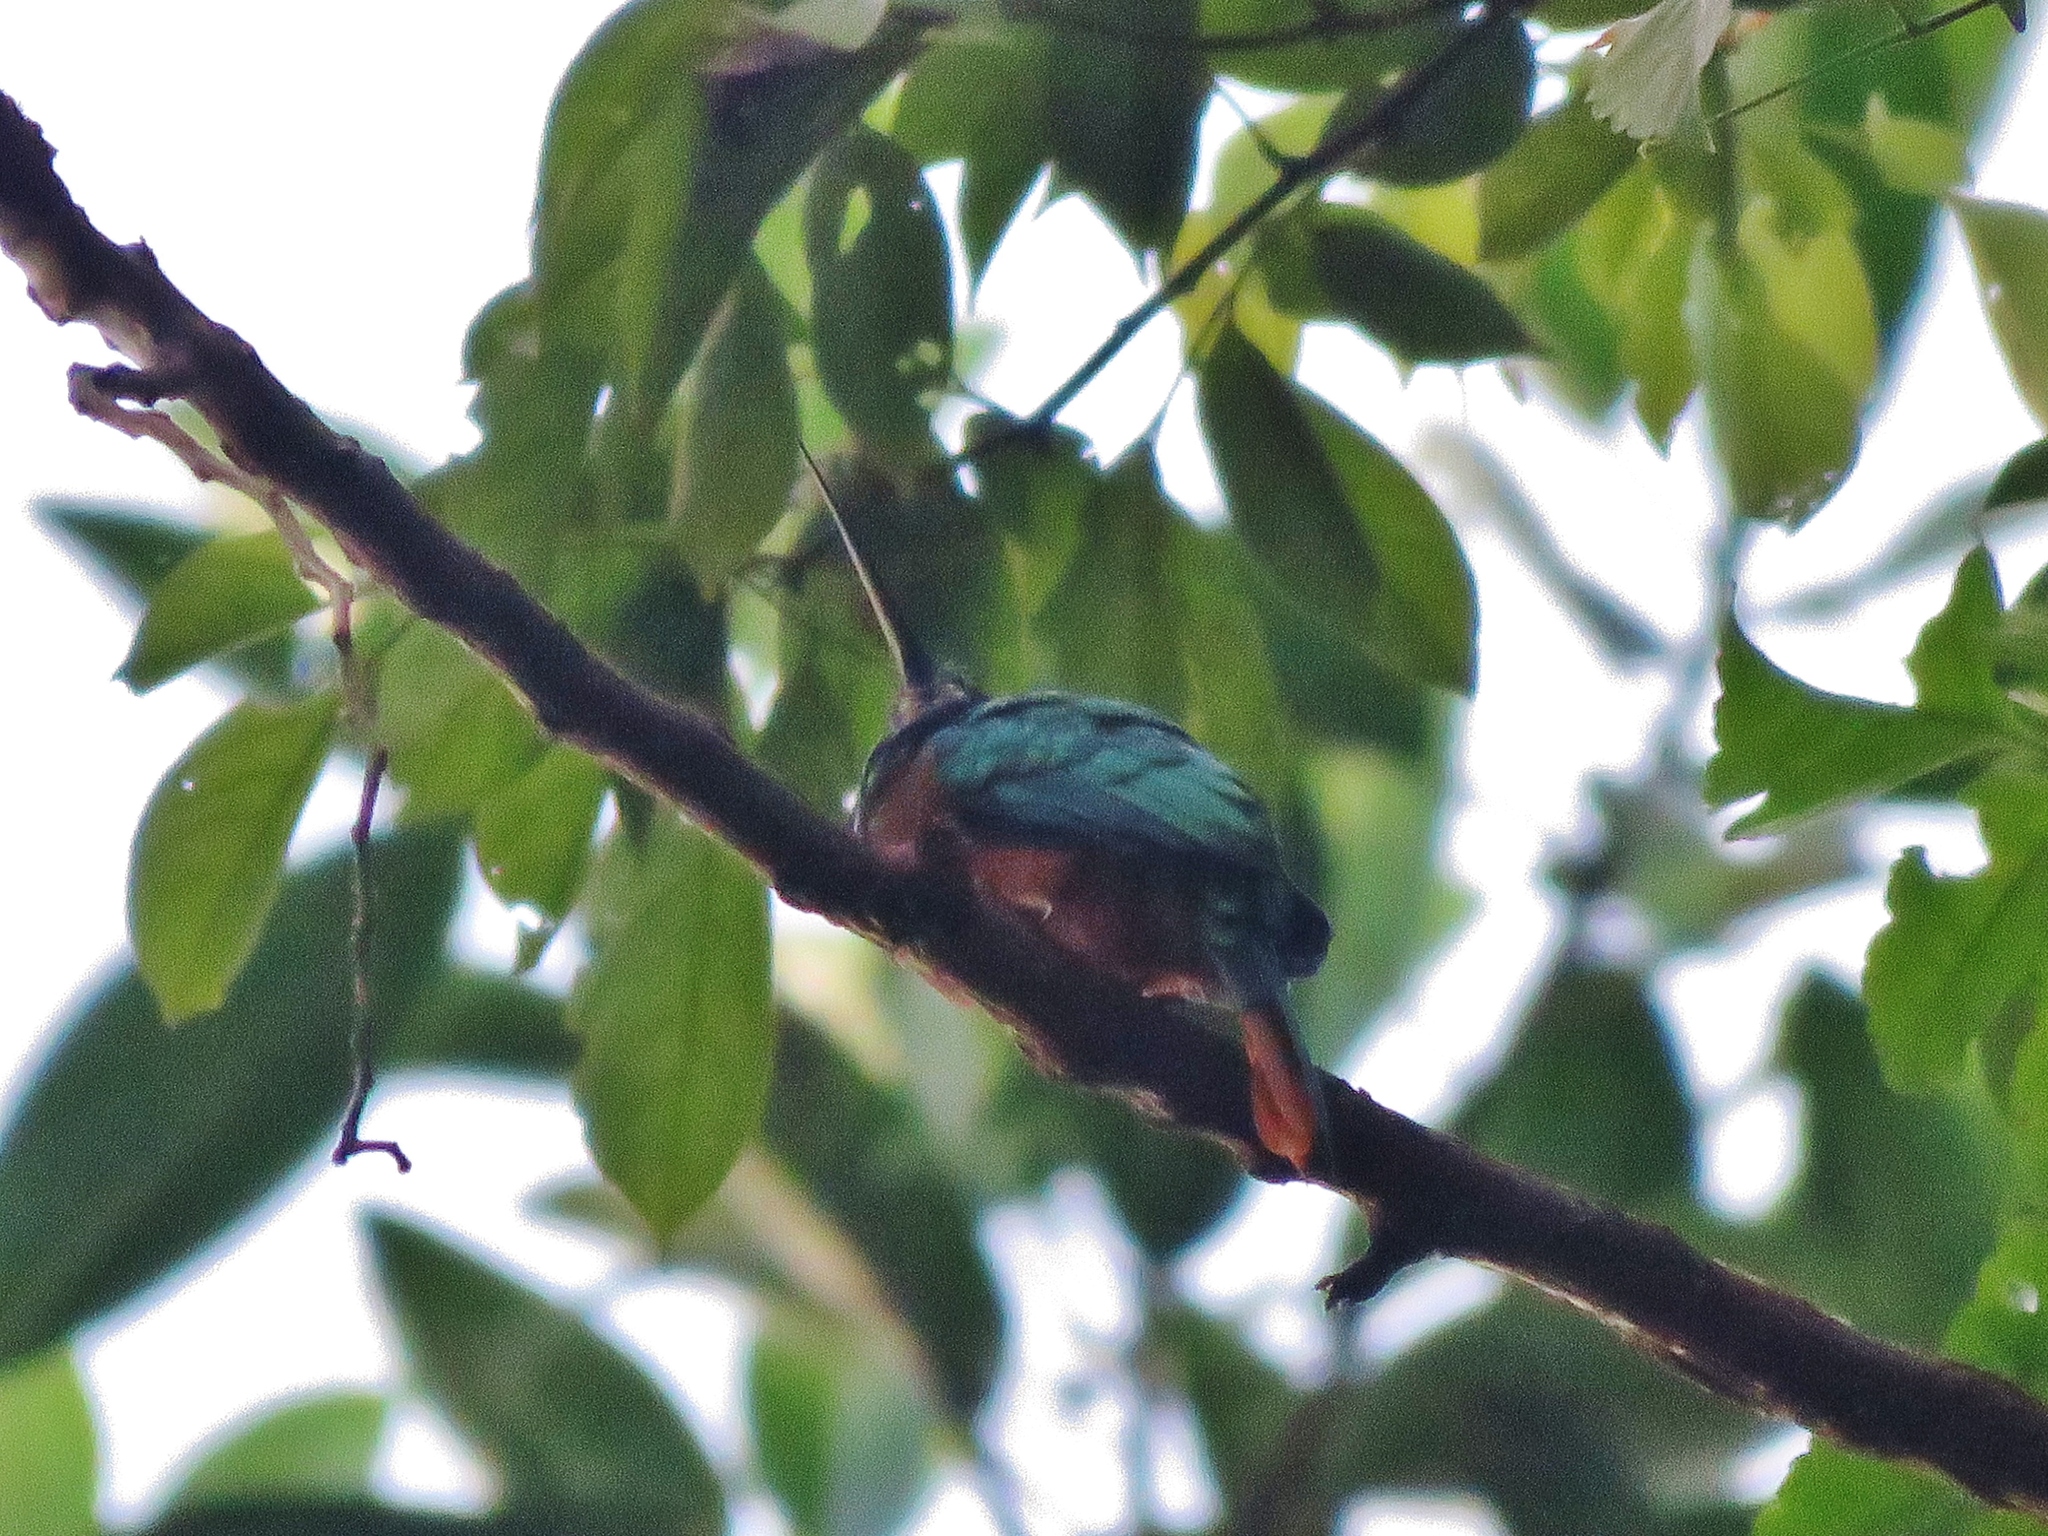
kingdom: Animalia
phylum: Chordata
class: Aves
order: Piciformes
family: Galbulidae
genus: Galbula
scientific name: Galbula cyanescens
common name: Bluish-fronted jacamar
